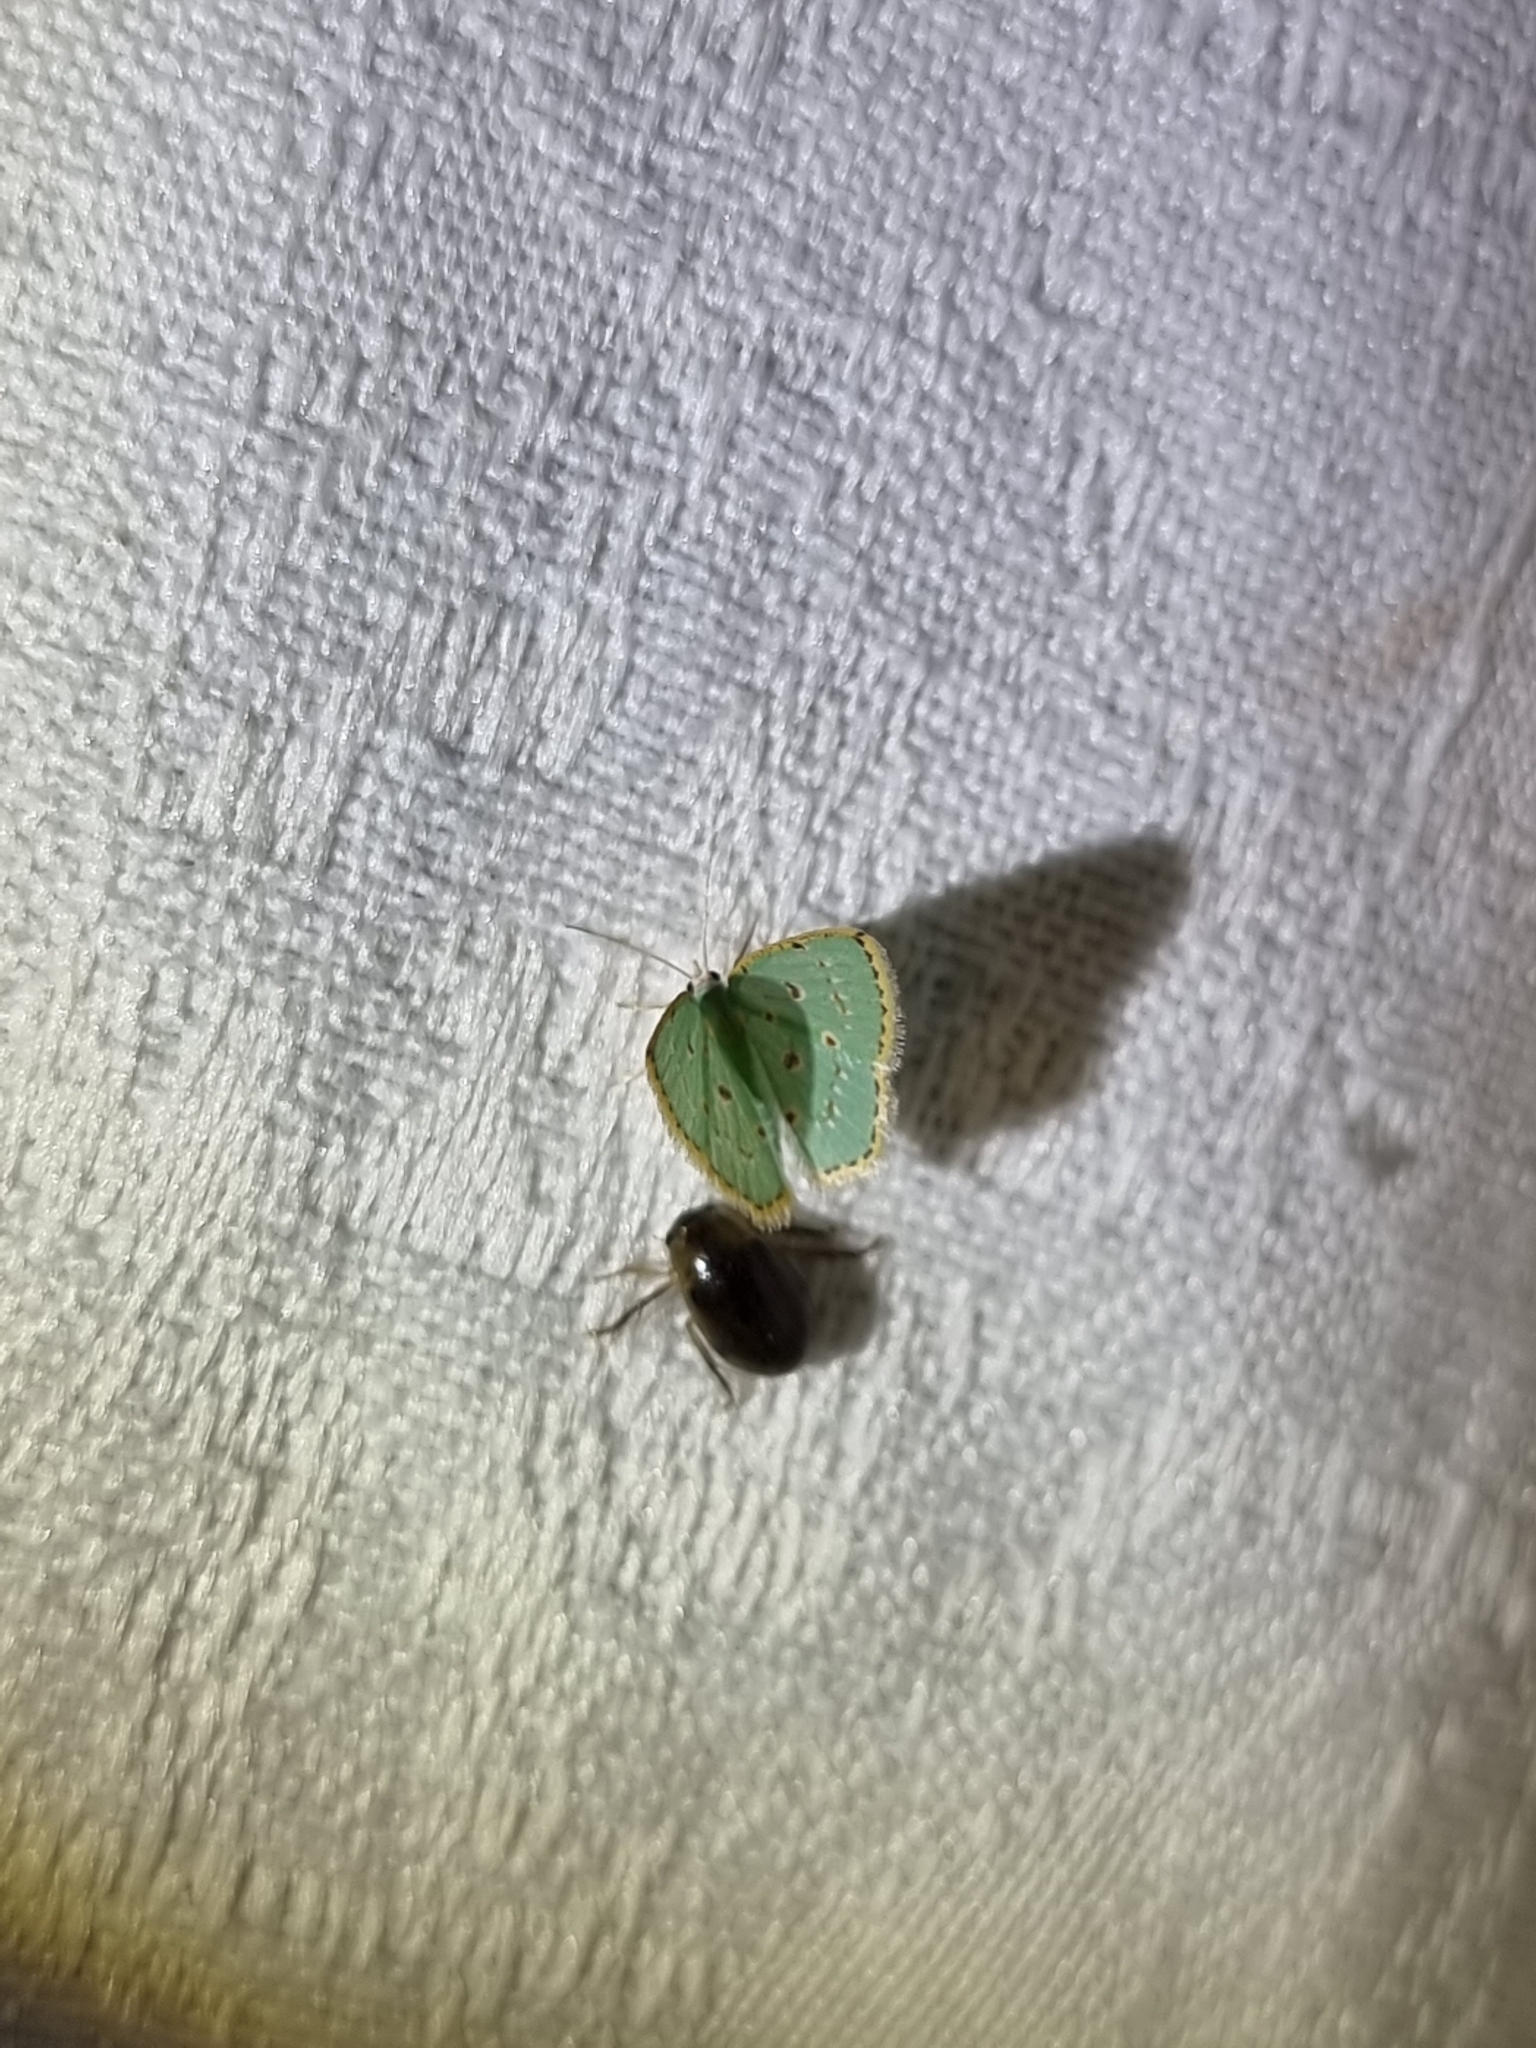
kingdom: Animalia
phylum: Arthropoda
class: Insecta
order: Lepidoptera
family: Geometridae
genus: Comostola
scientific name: Comostola laesaria
